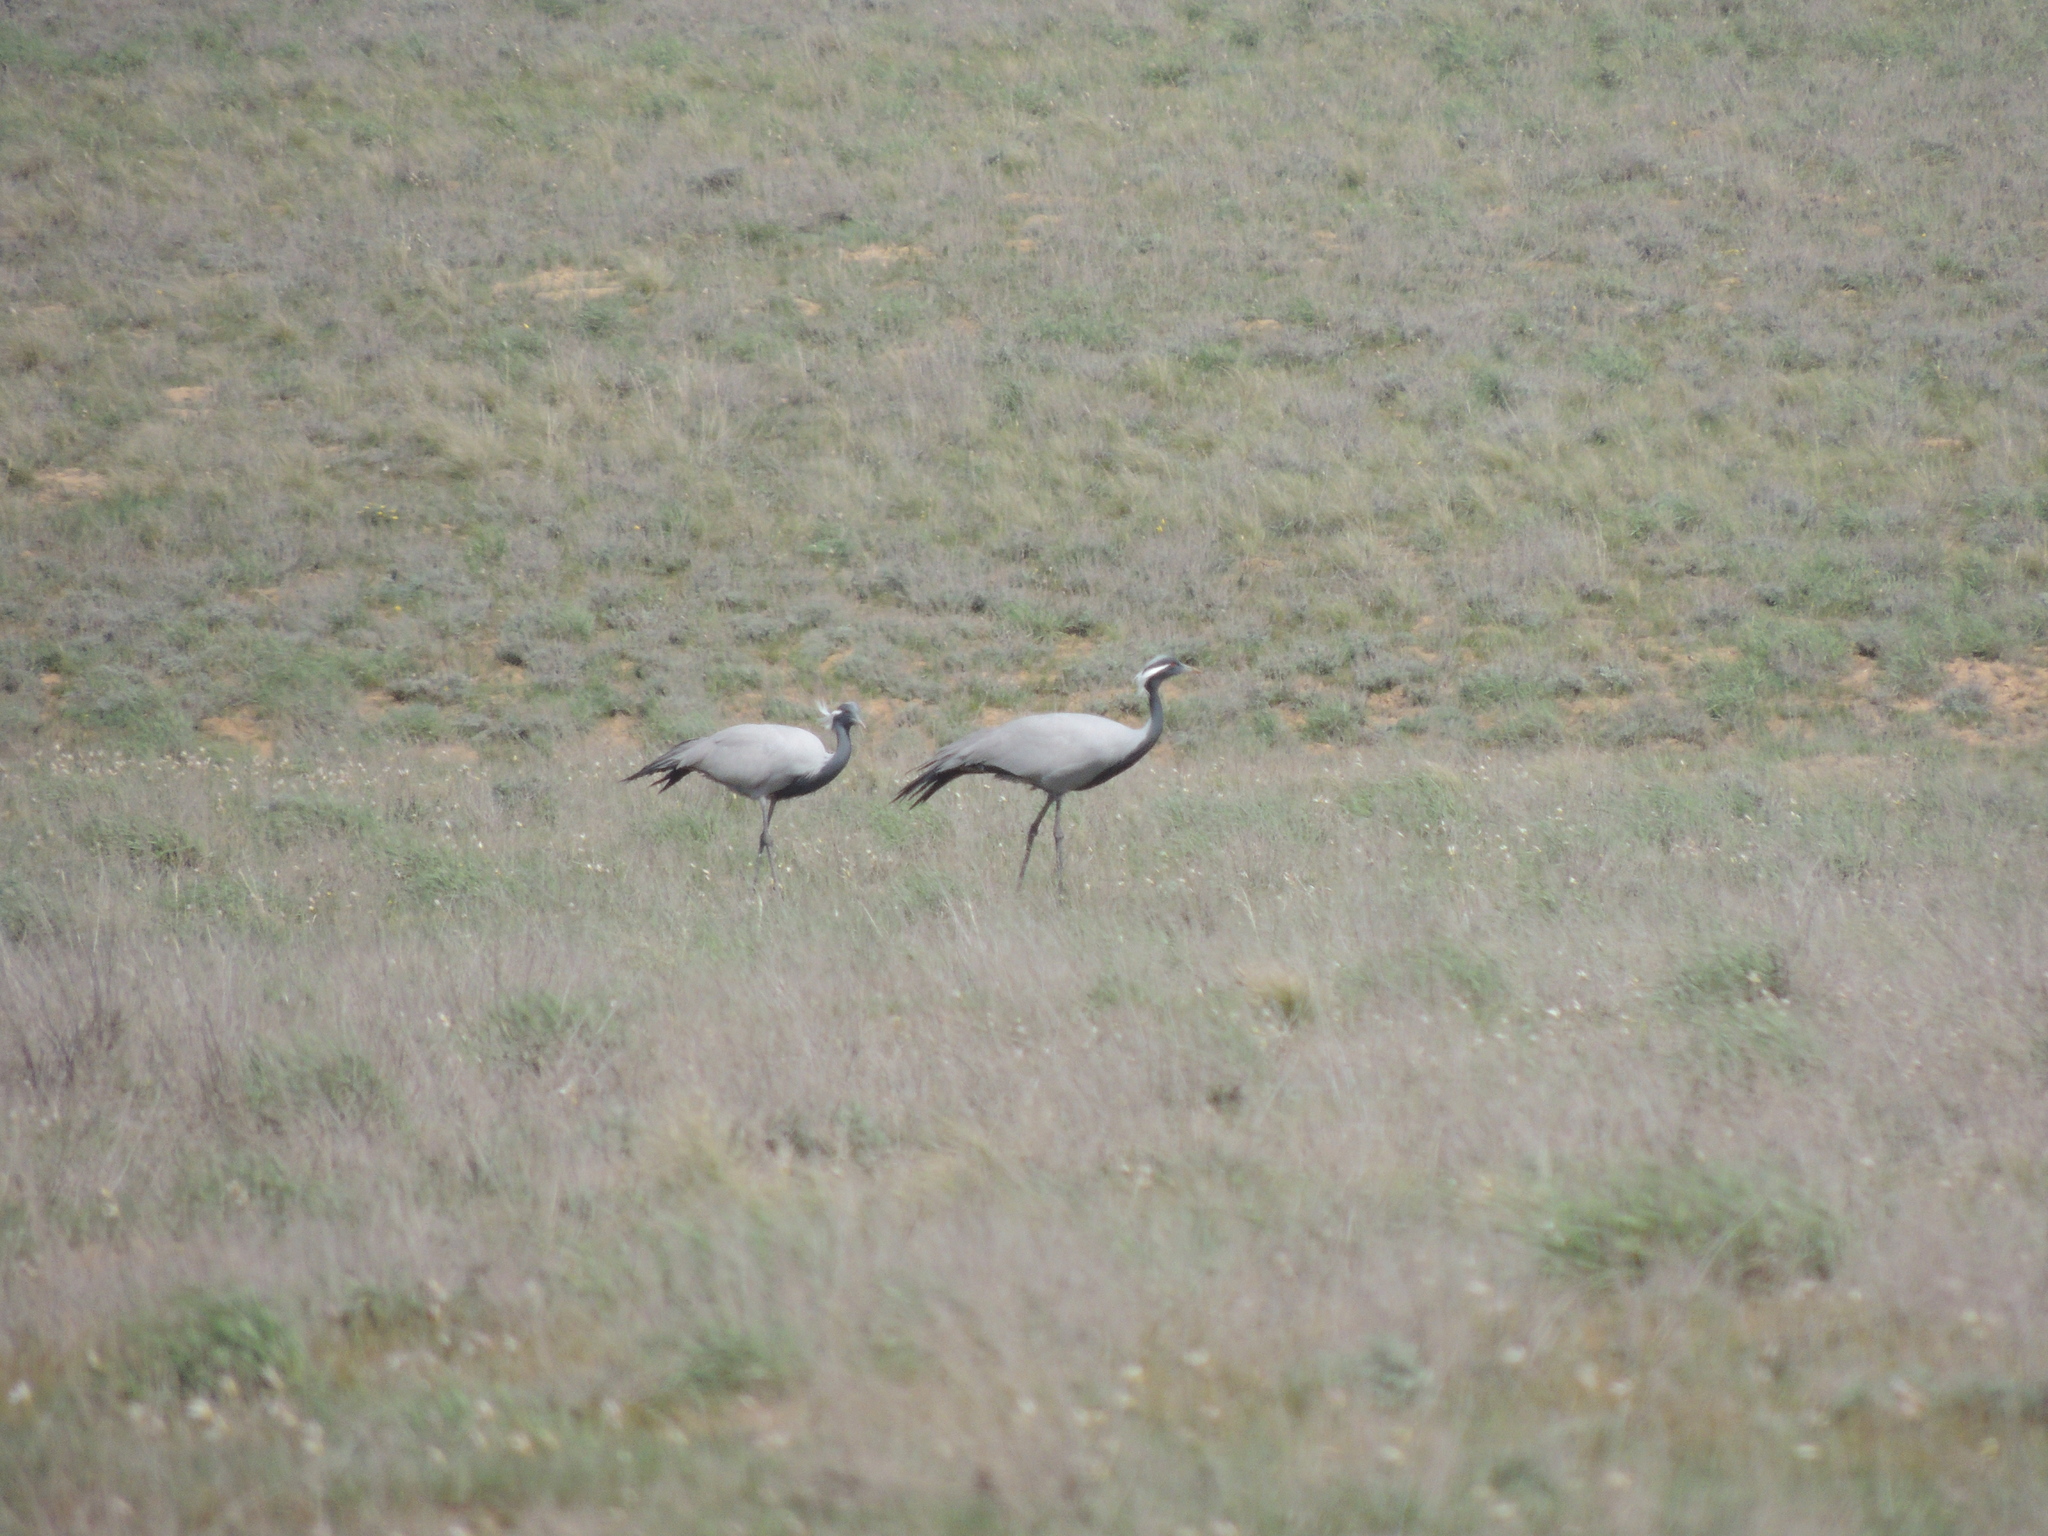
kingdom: Animalia
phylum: Chordata
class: Aves
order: Gruiformes
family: Gruidae
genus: Anthropoides
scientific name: Anthropoides virgo
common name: Demoiselle crane
